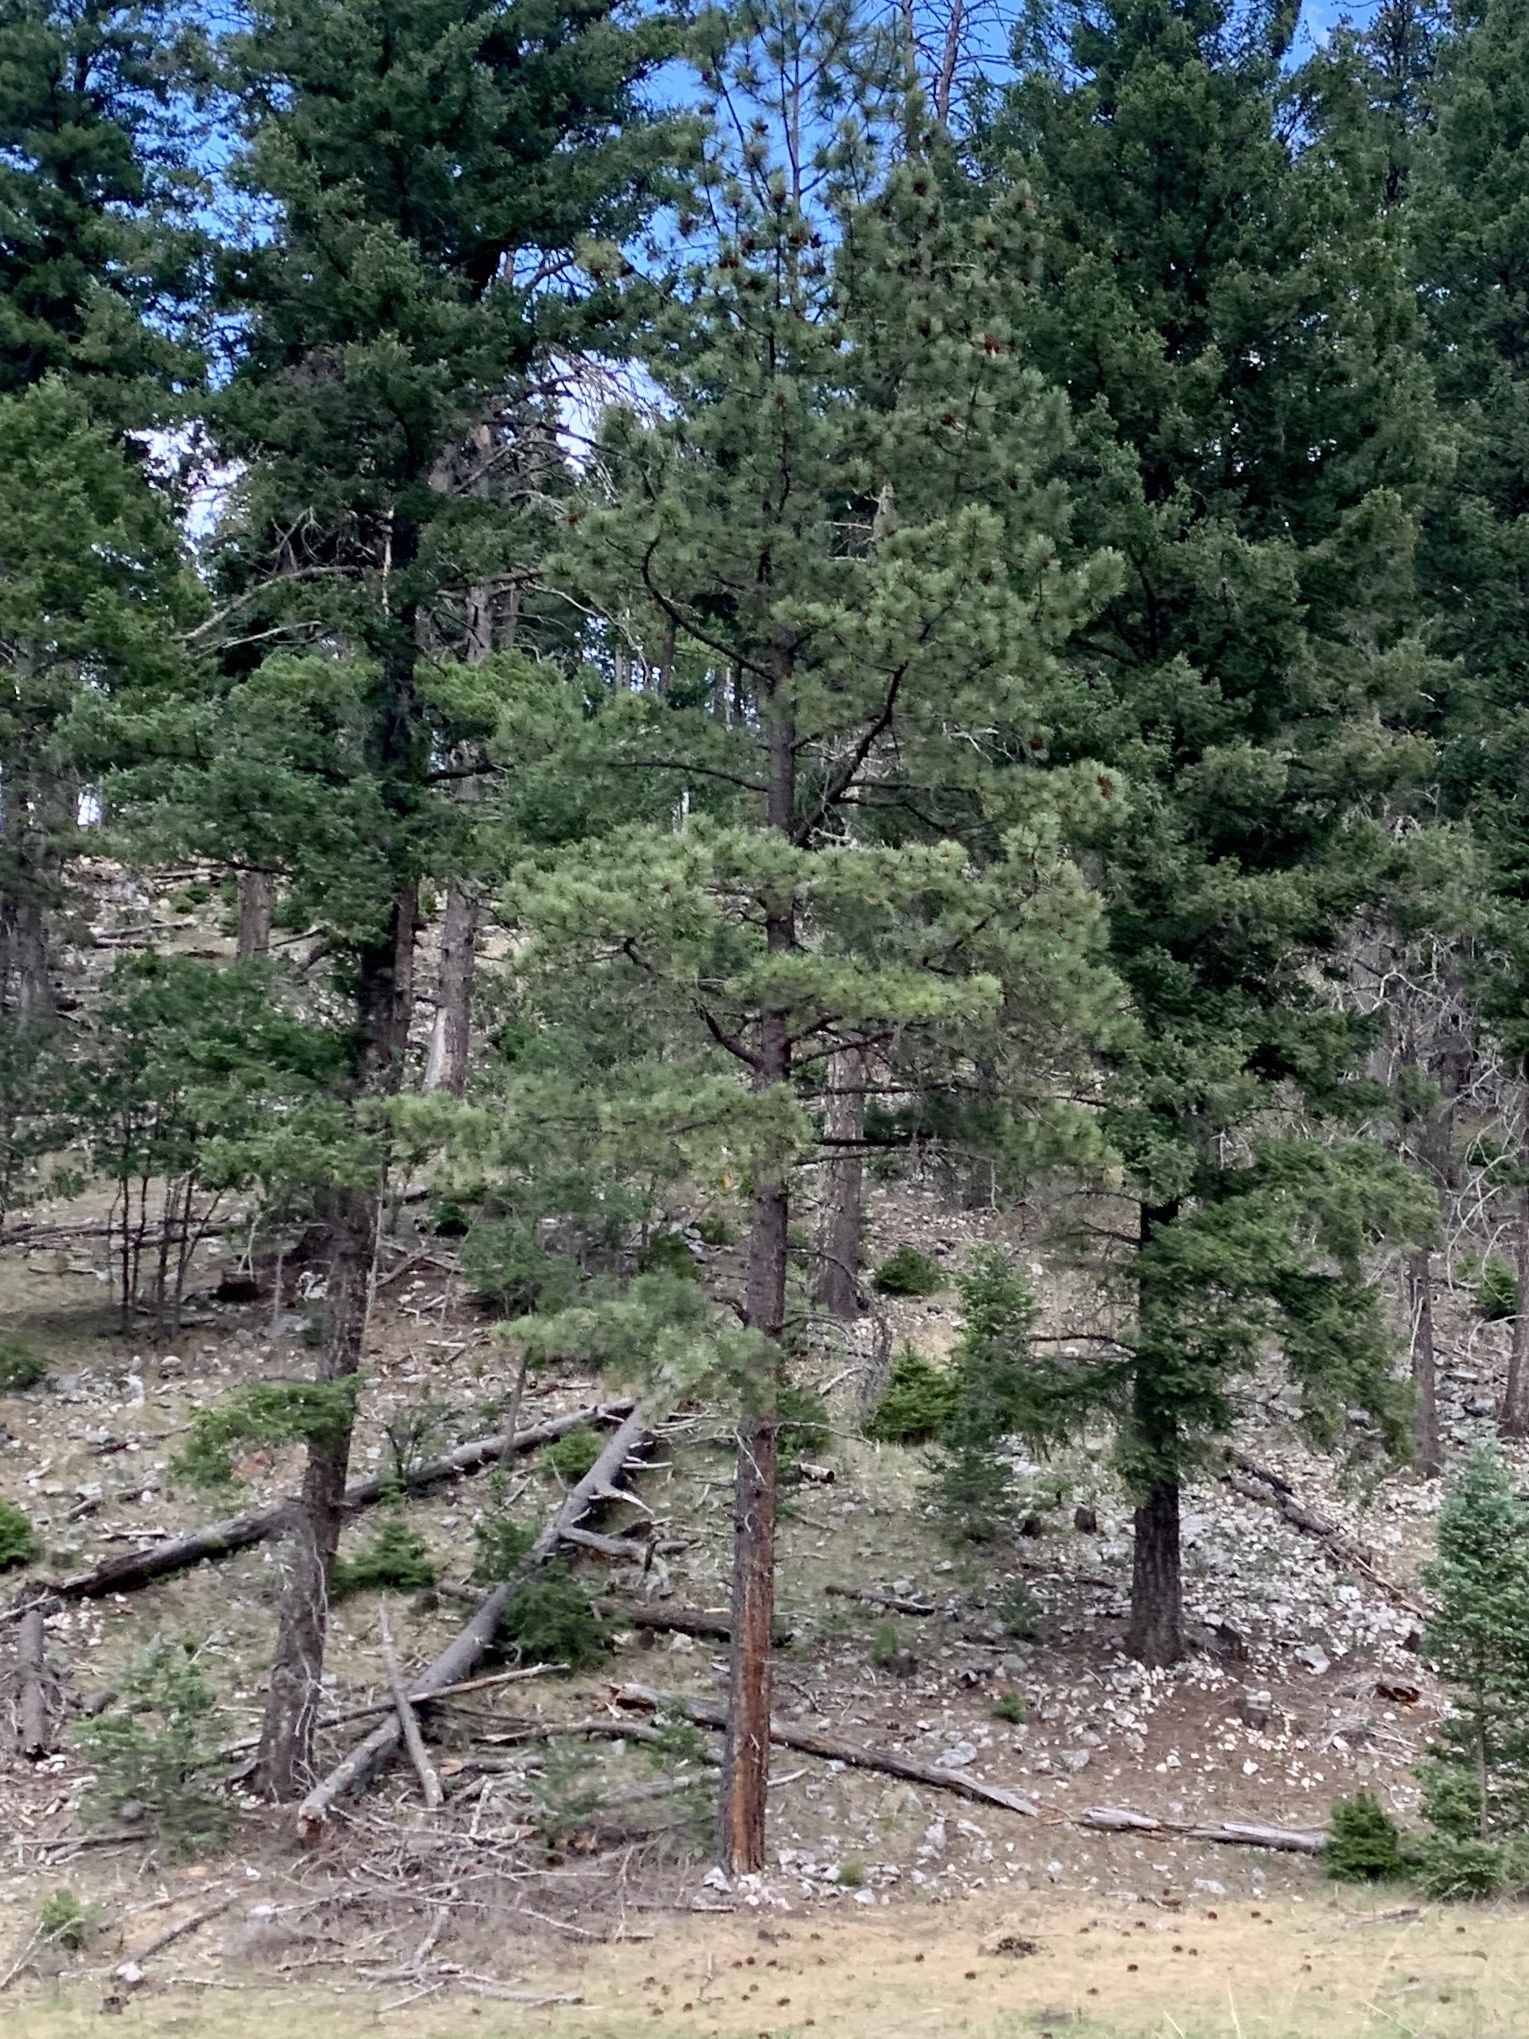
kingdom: Plantae
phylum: Tracheophyta
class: Pinopsida
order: Pinales
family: Pinaceae
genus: Pinus
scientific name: Pinus ponderosa
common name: Western yellow-pine
